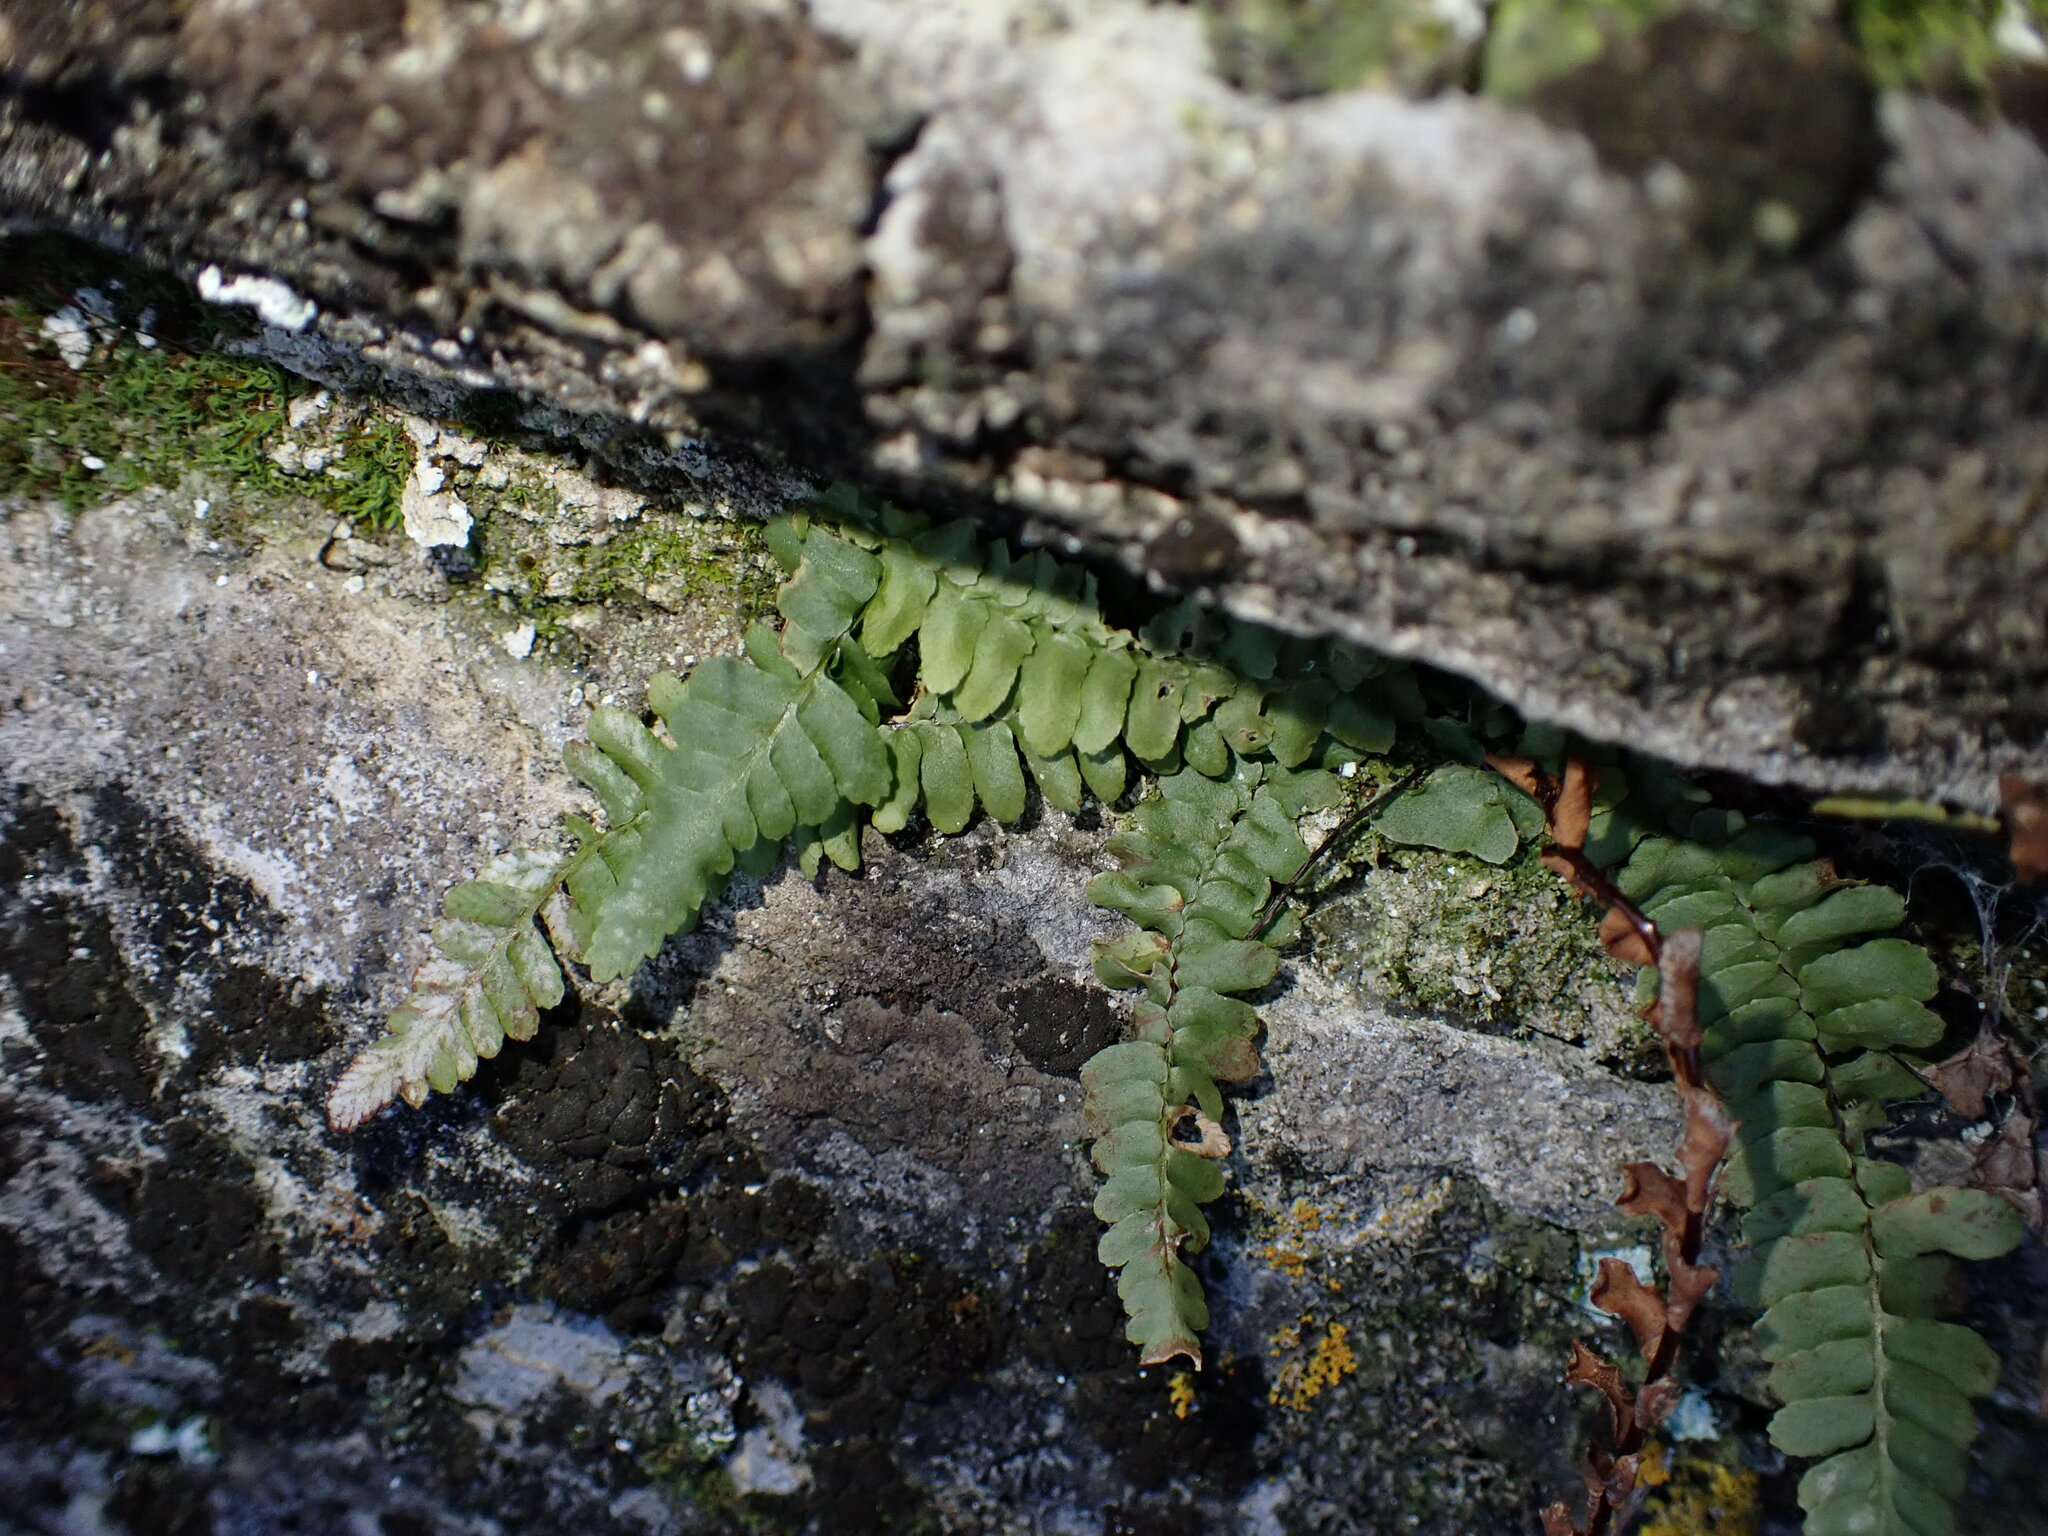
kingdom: Plantae
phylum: Tracheophyta
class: Polypodiopsida
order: Polypodiales
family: Aspleniaceae
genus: Asplenium
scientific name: Asplenium platyneuron
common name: Ebony spleenwort
